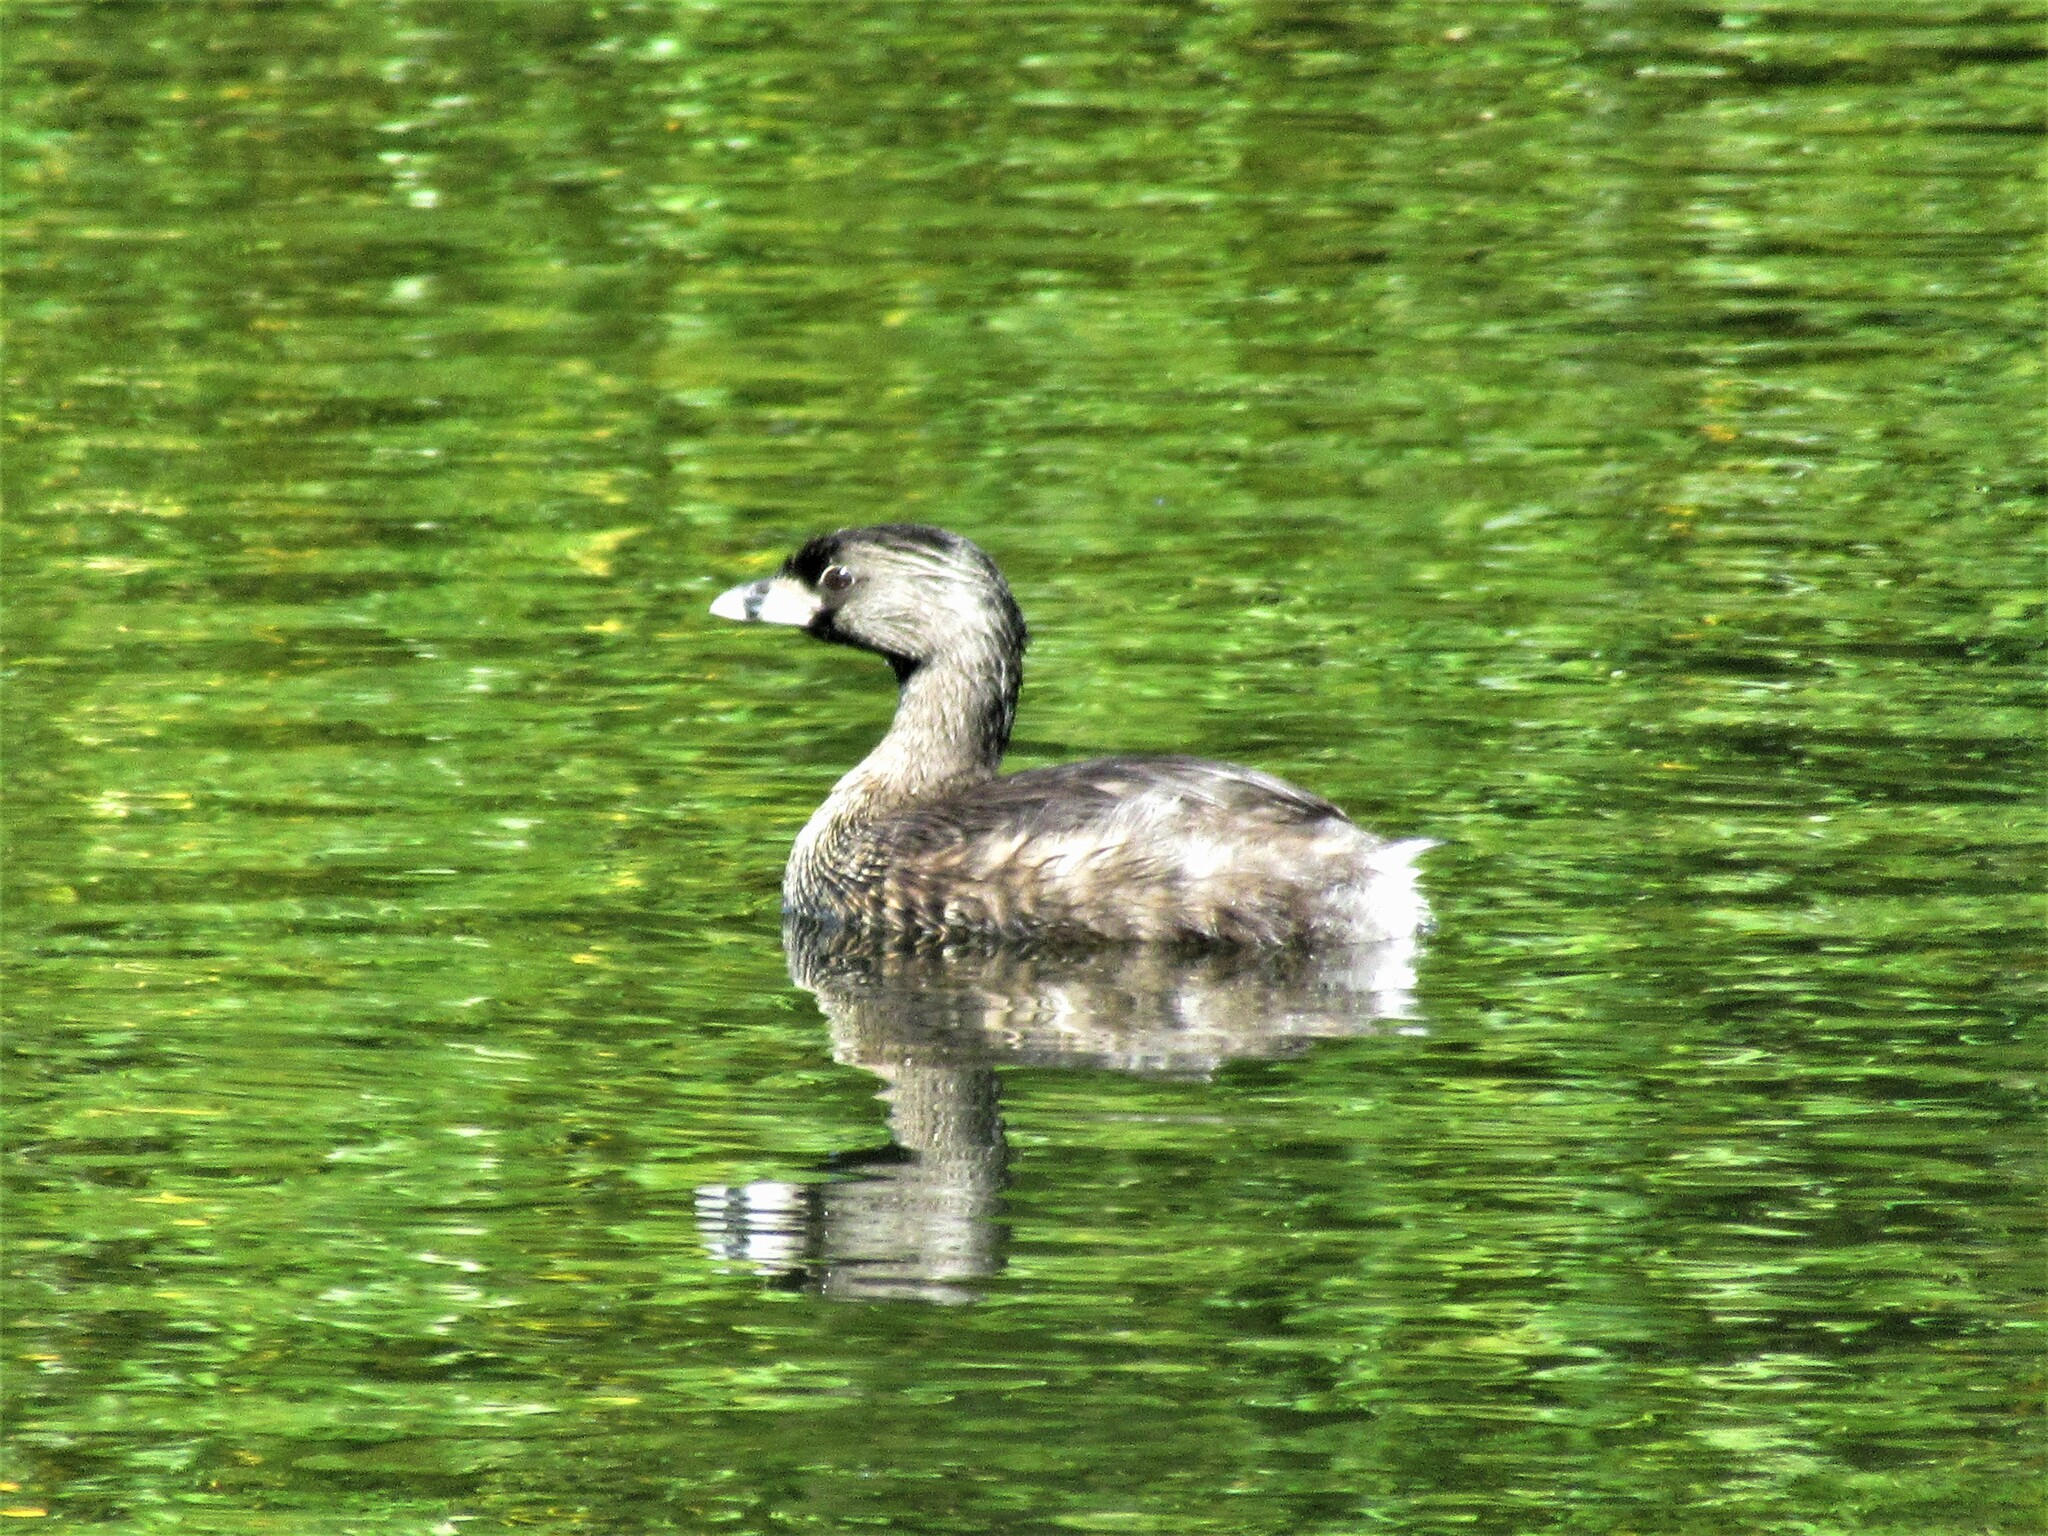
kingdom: Animalia
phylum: Chordata
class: Aves
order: Podicipediformes
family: Podicipedidae
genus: Podilymbus
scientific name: Podilymbus podiceps
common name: Pied-billed grebe
